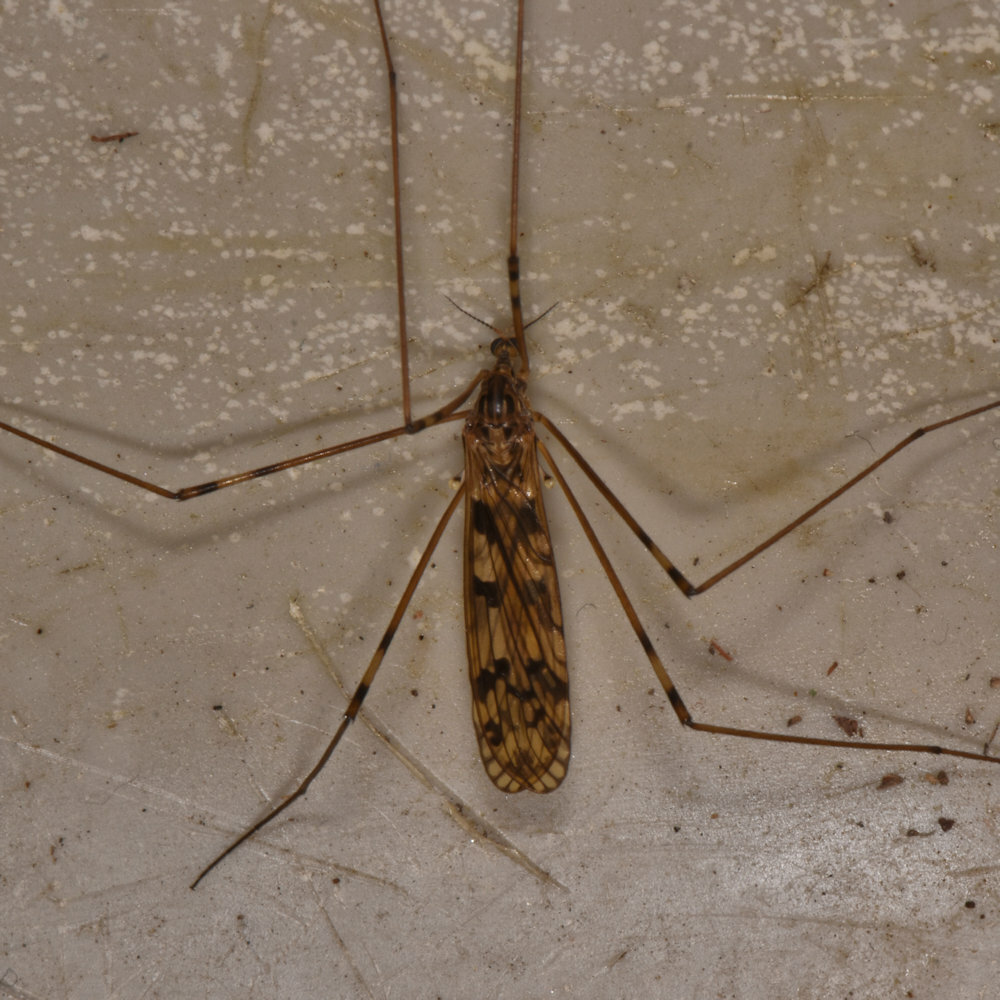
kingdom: Animalia
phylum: Arthropoda
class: Insecta
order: Diptera
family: Limoniidae
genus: Limonia
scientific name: Limonia cinctipes
